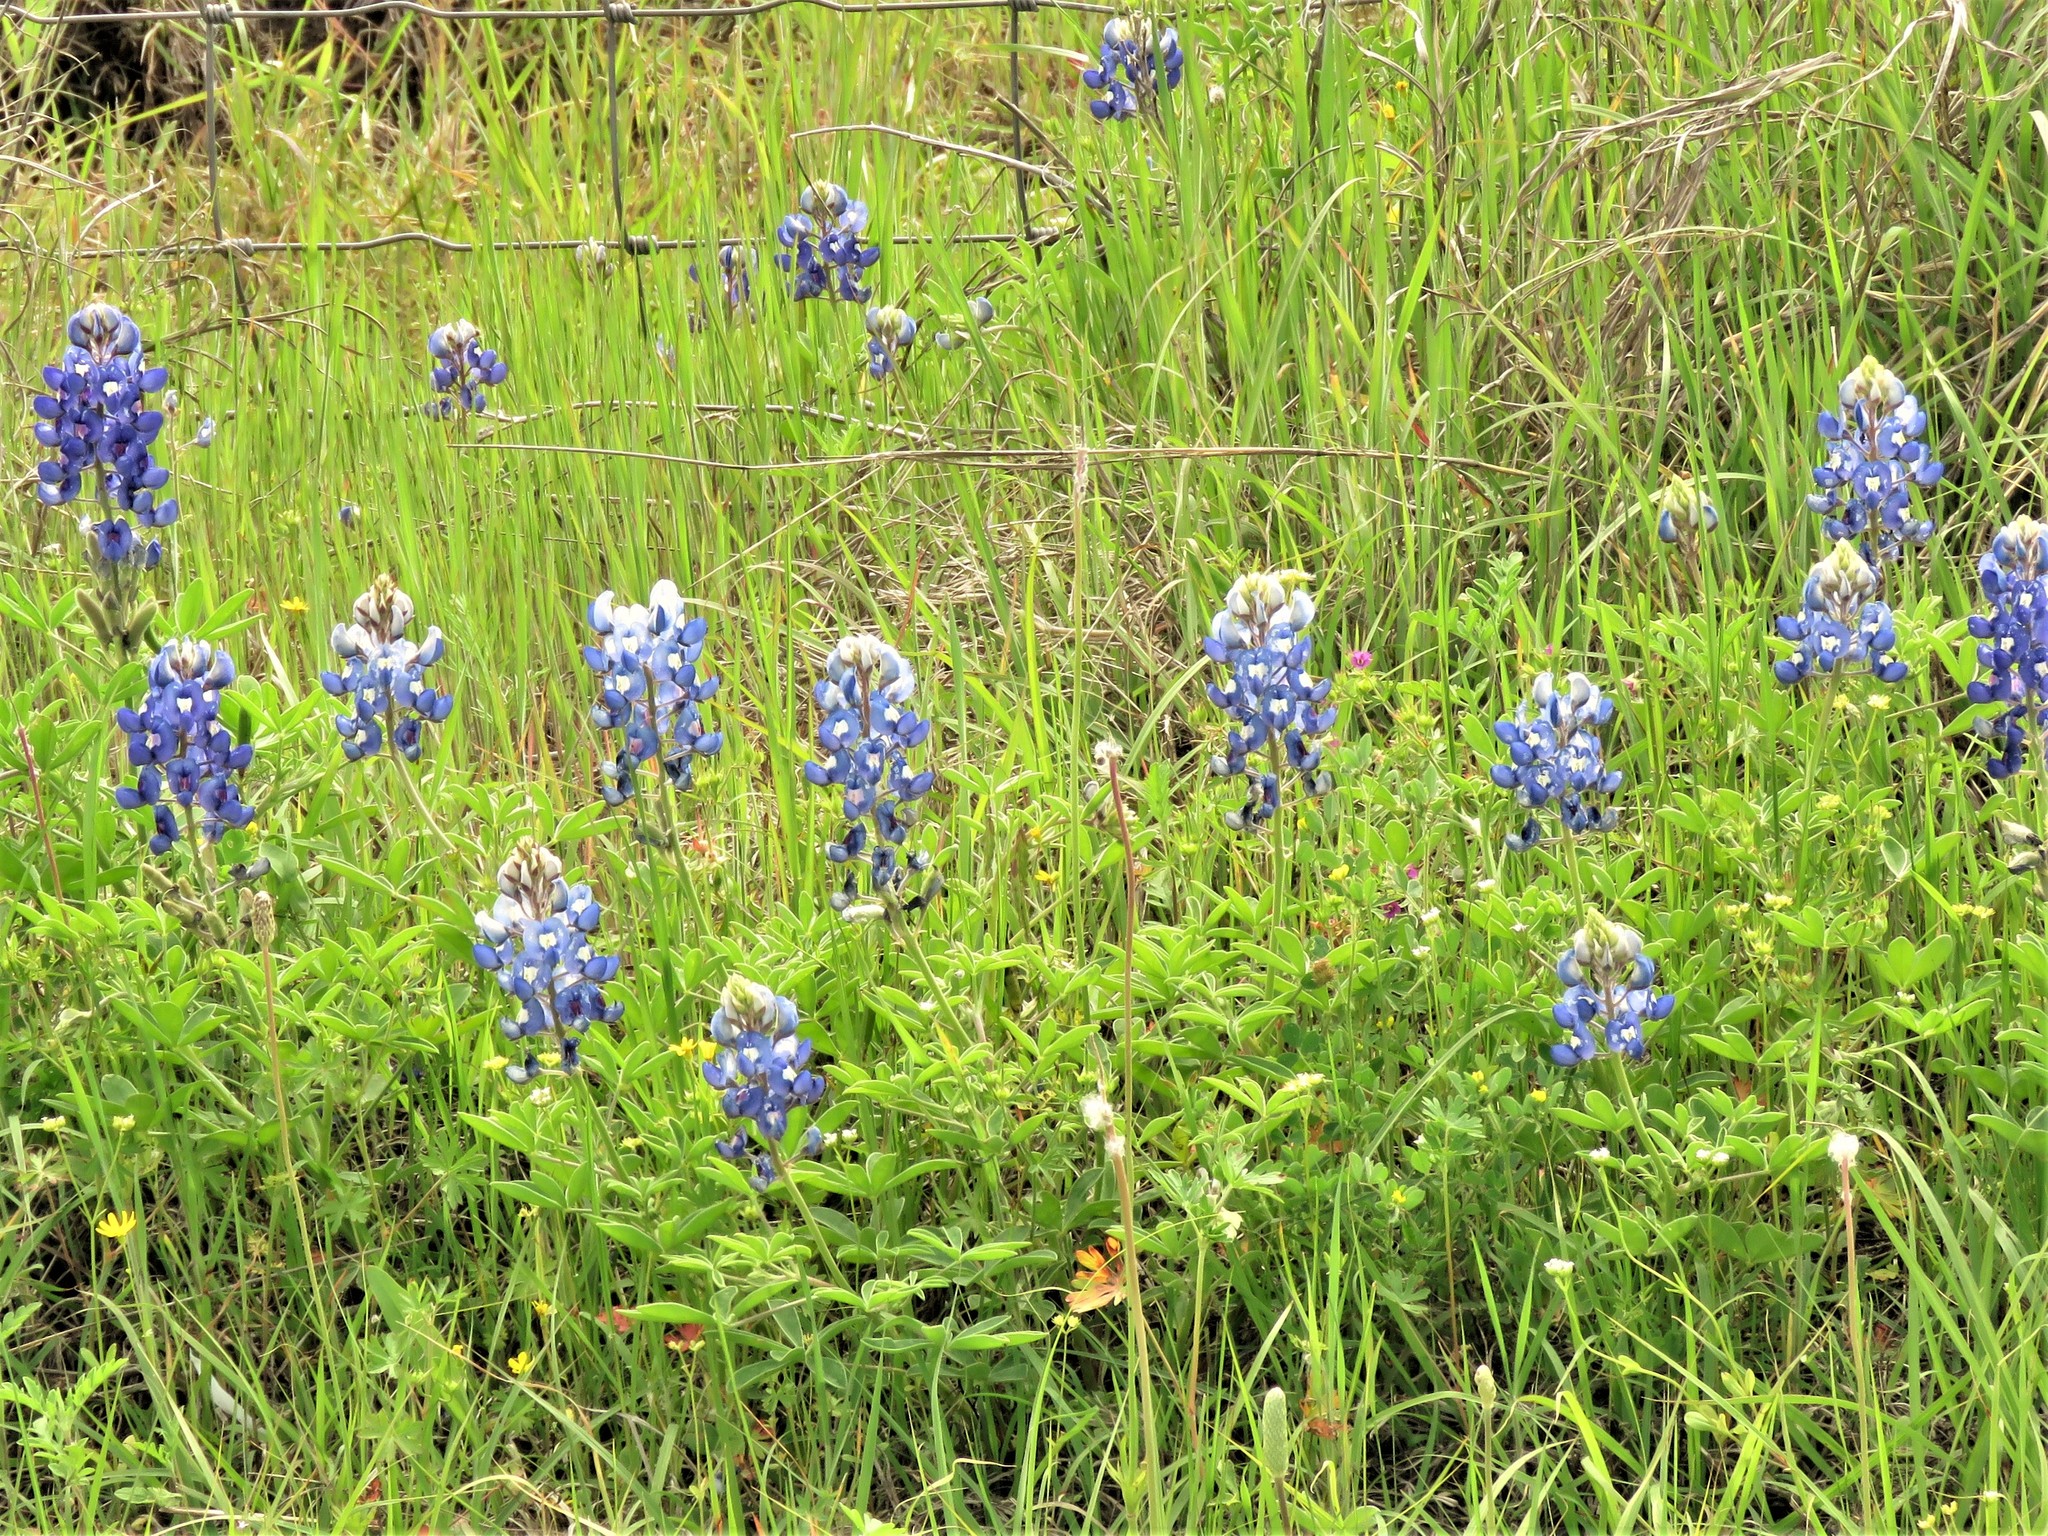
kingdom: Plantae
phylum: Tracheophyta
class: Magnoliopsida
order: Fabales
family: Fabaceae
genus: Lupinus
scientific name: Lupinus texensis
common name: Texas bluebonnet
